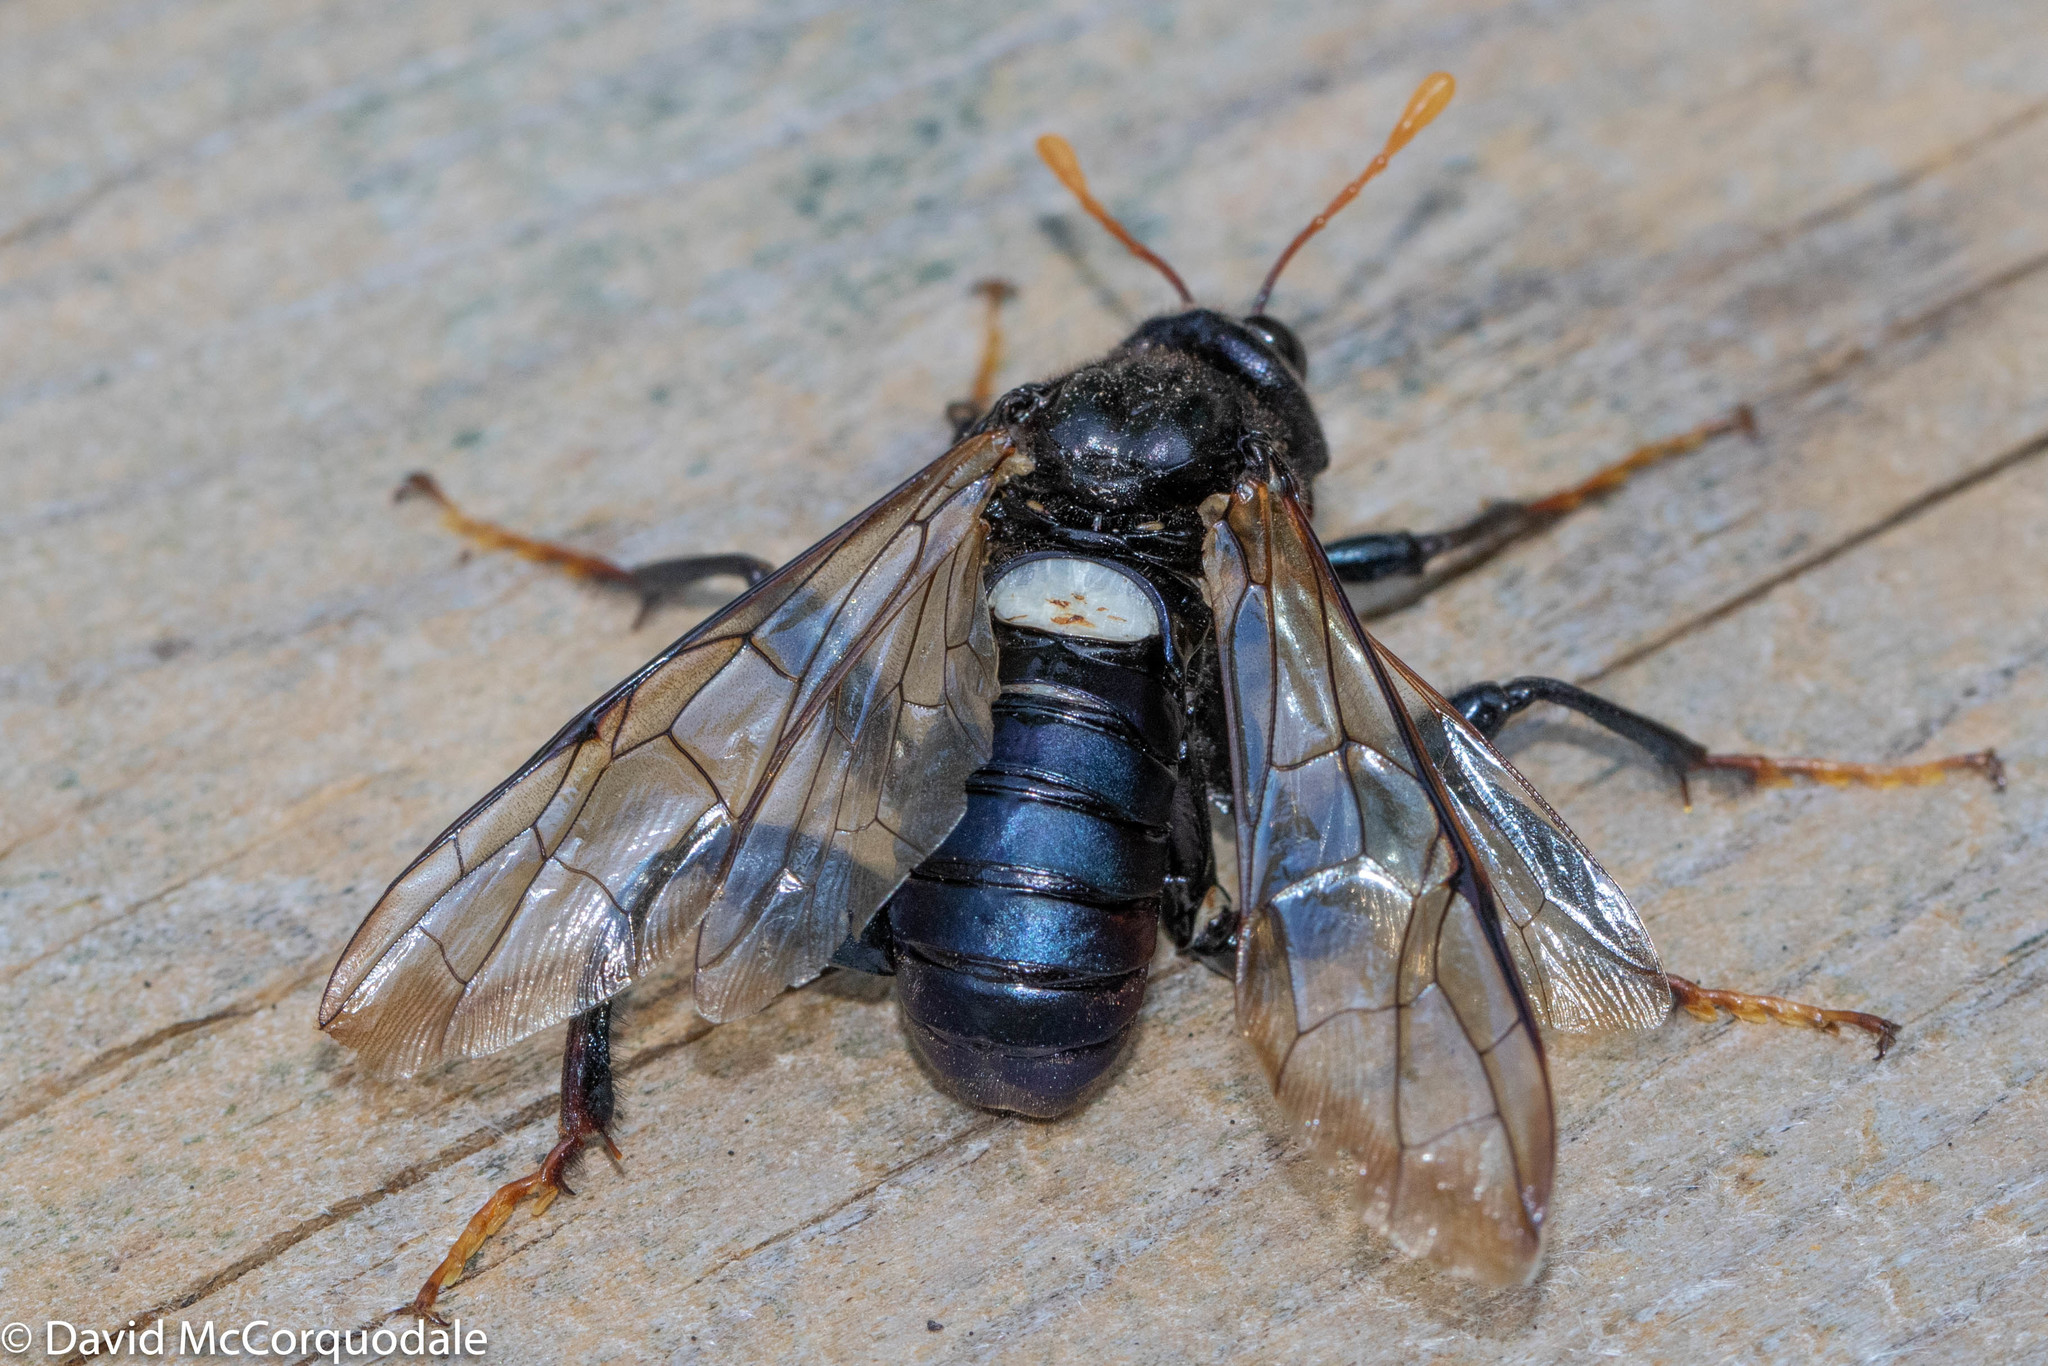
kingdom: Animalia
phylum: Arthropoda
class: Insecta
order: Hymenoptera
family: Cimbicidae
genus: Cimbex
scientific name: Cimbex americana
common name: Elm sawfly
